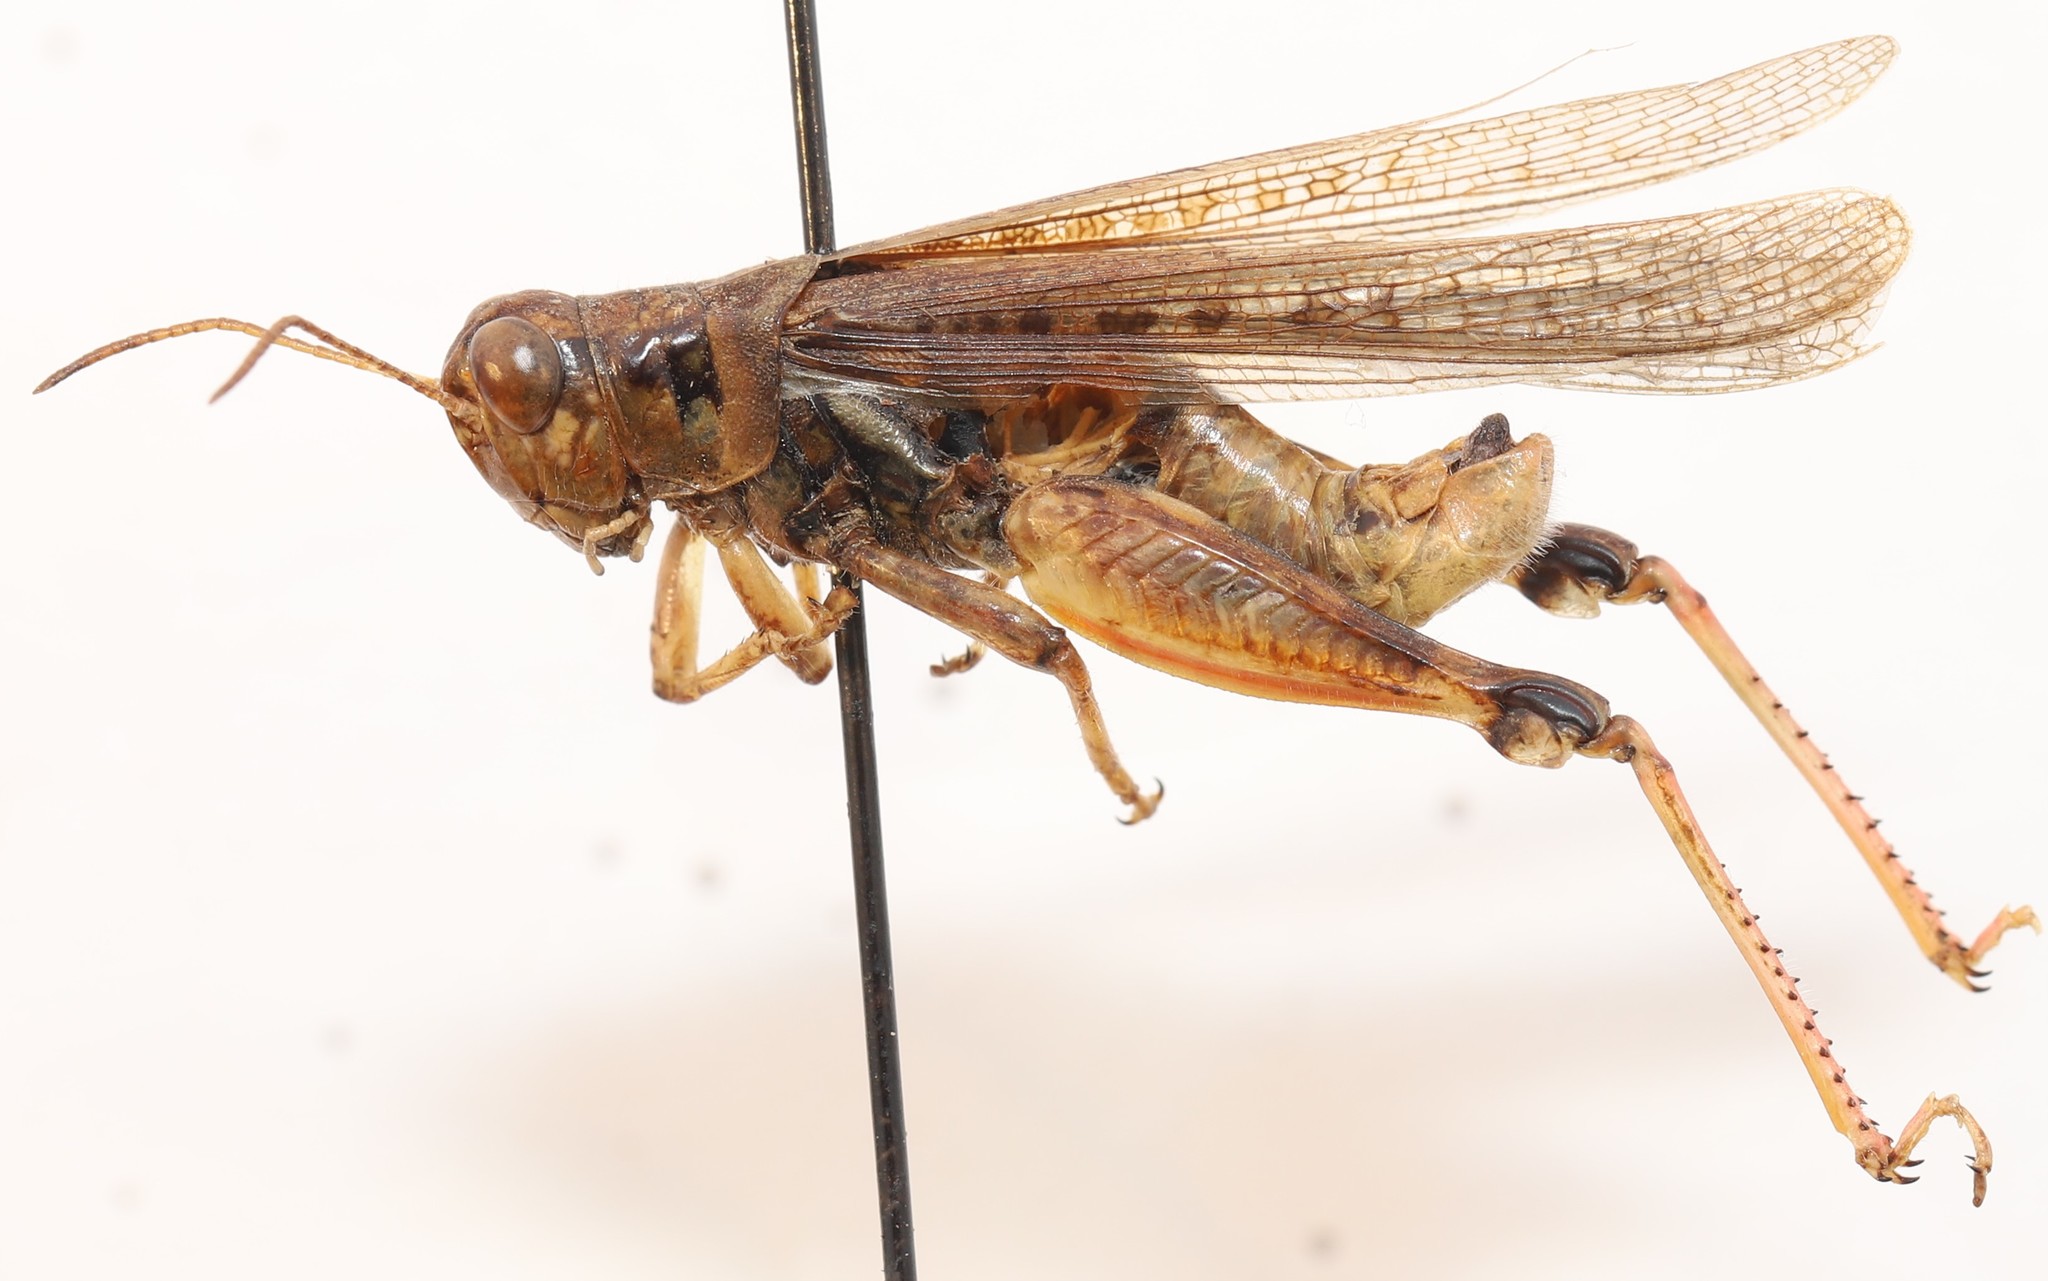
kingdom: Animalia
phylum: Arthropoda
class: Insecta
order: Orthoptera
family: Acrididae
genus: Melanoplus
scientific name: Melanoplus sanguinipes
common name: Migratory grasshopper
